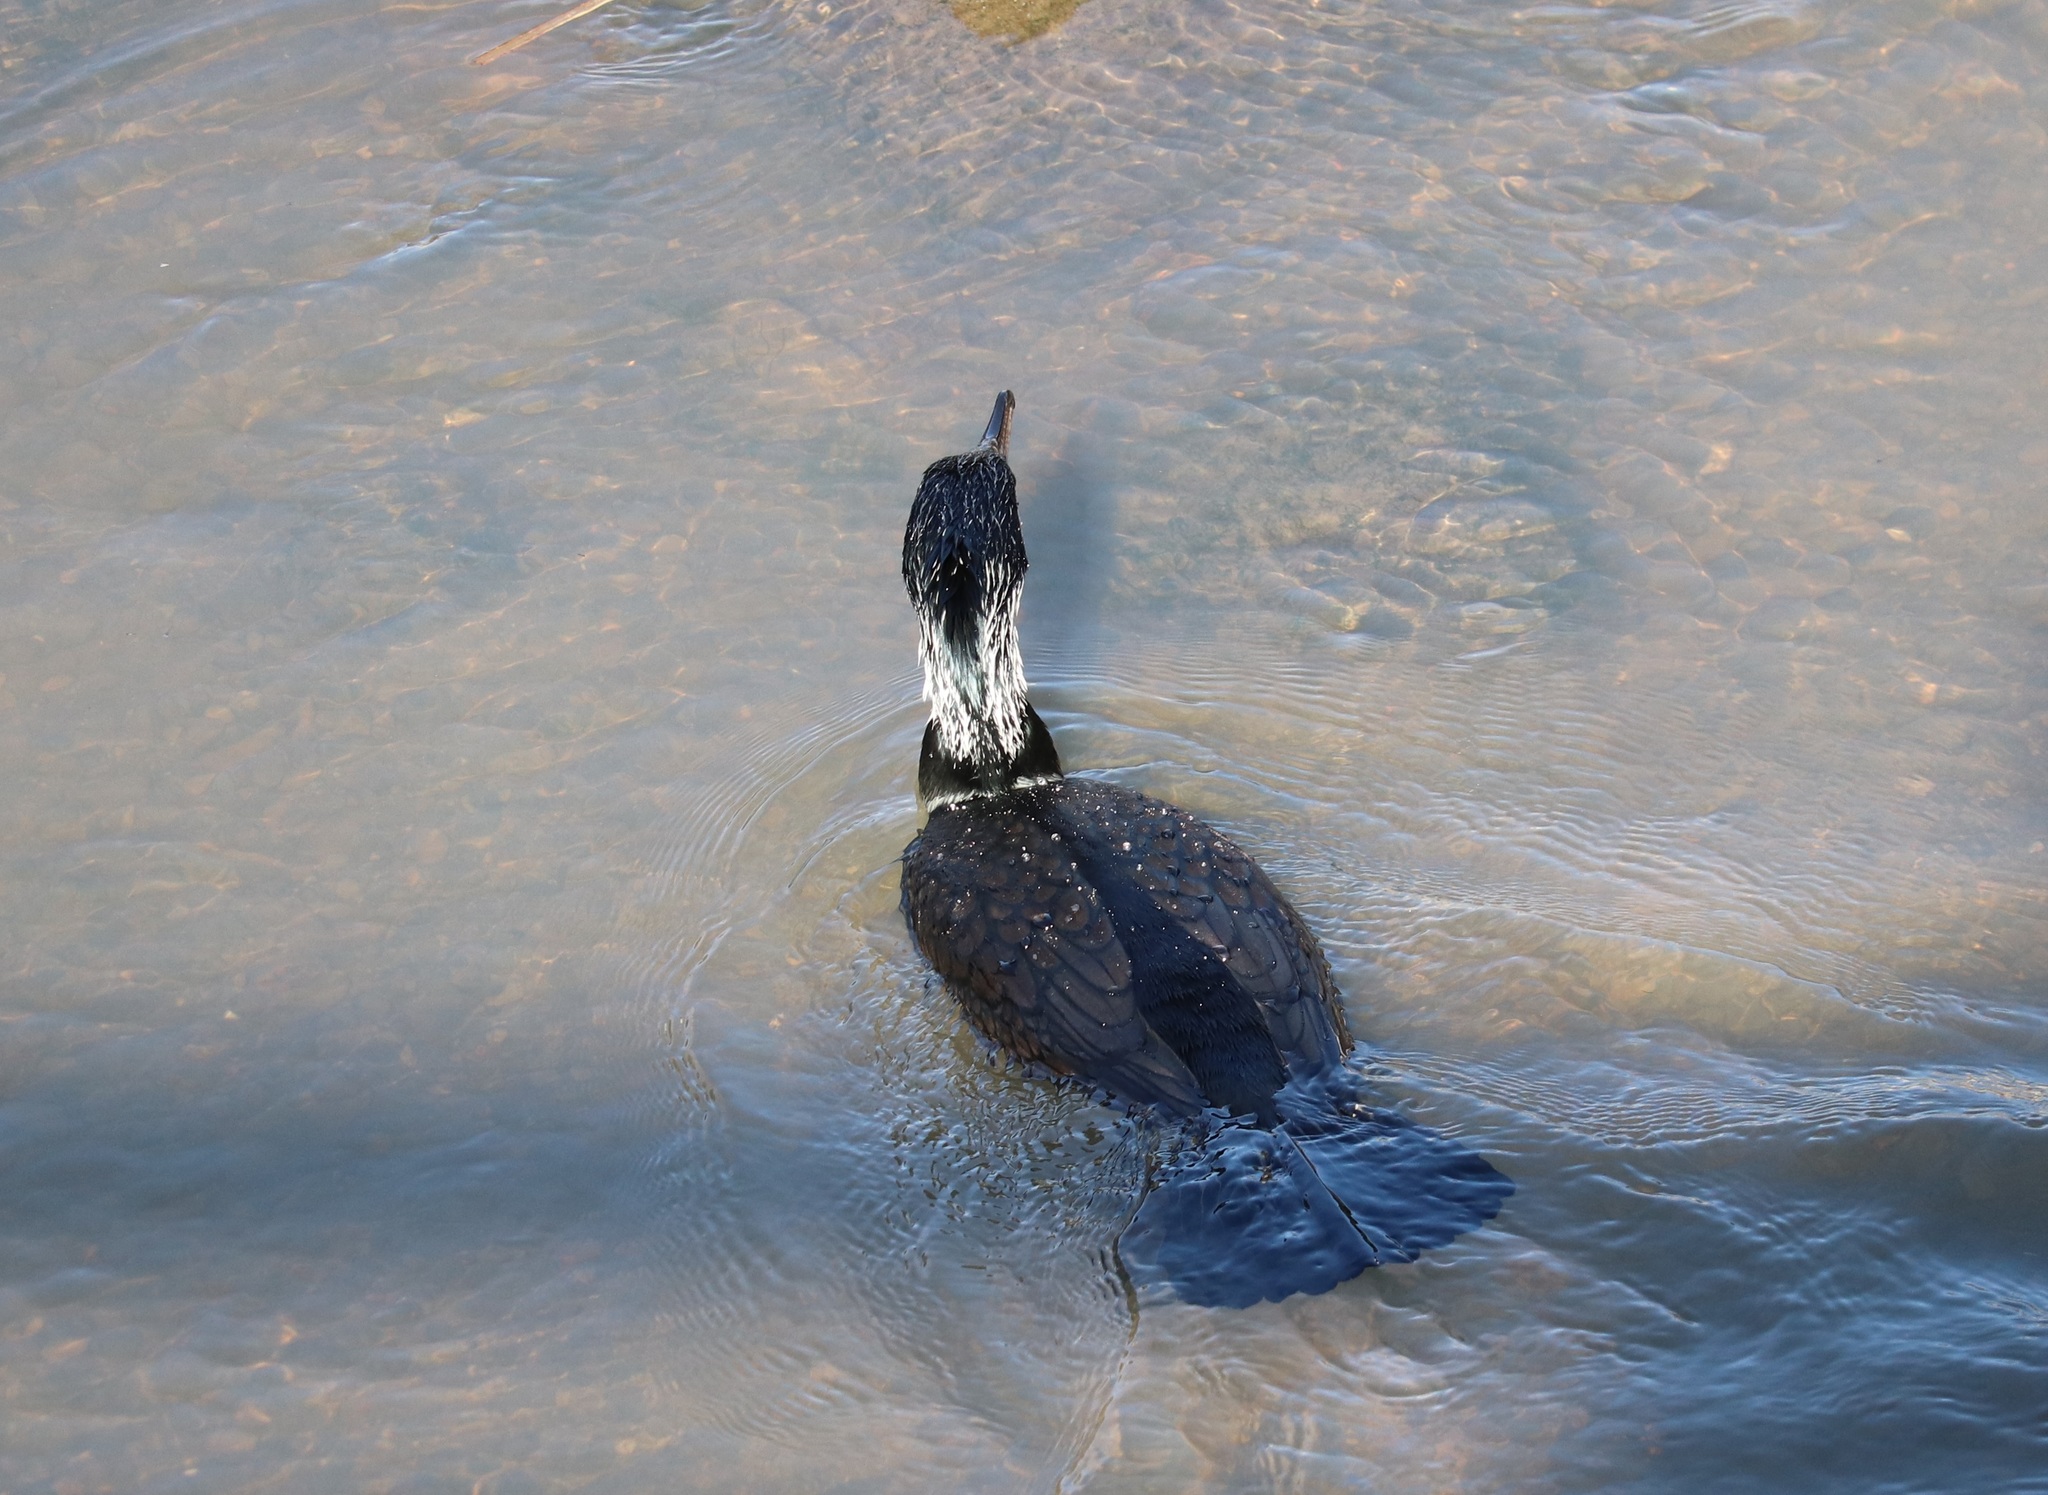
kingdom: Animalia
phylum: Chordata
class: Aves
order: Suliformes
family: Phalacrocoracidae
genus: Phalacrocorax
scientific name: Phalacrocorax carbo
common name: Great cormorant
